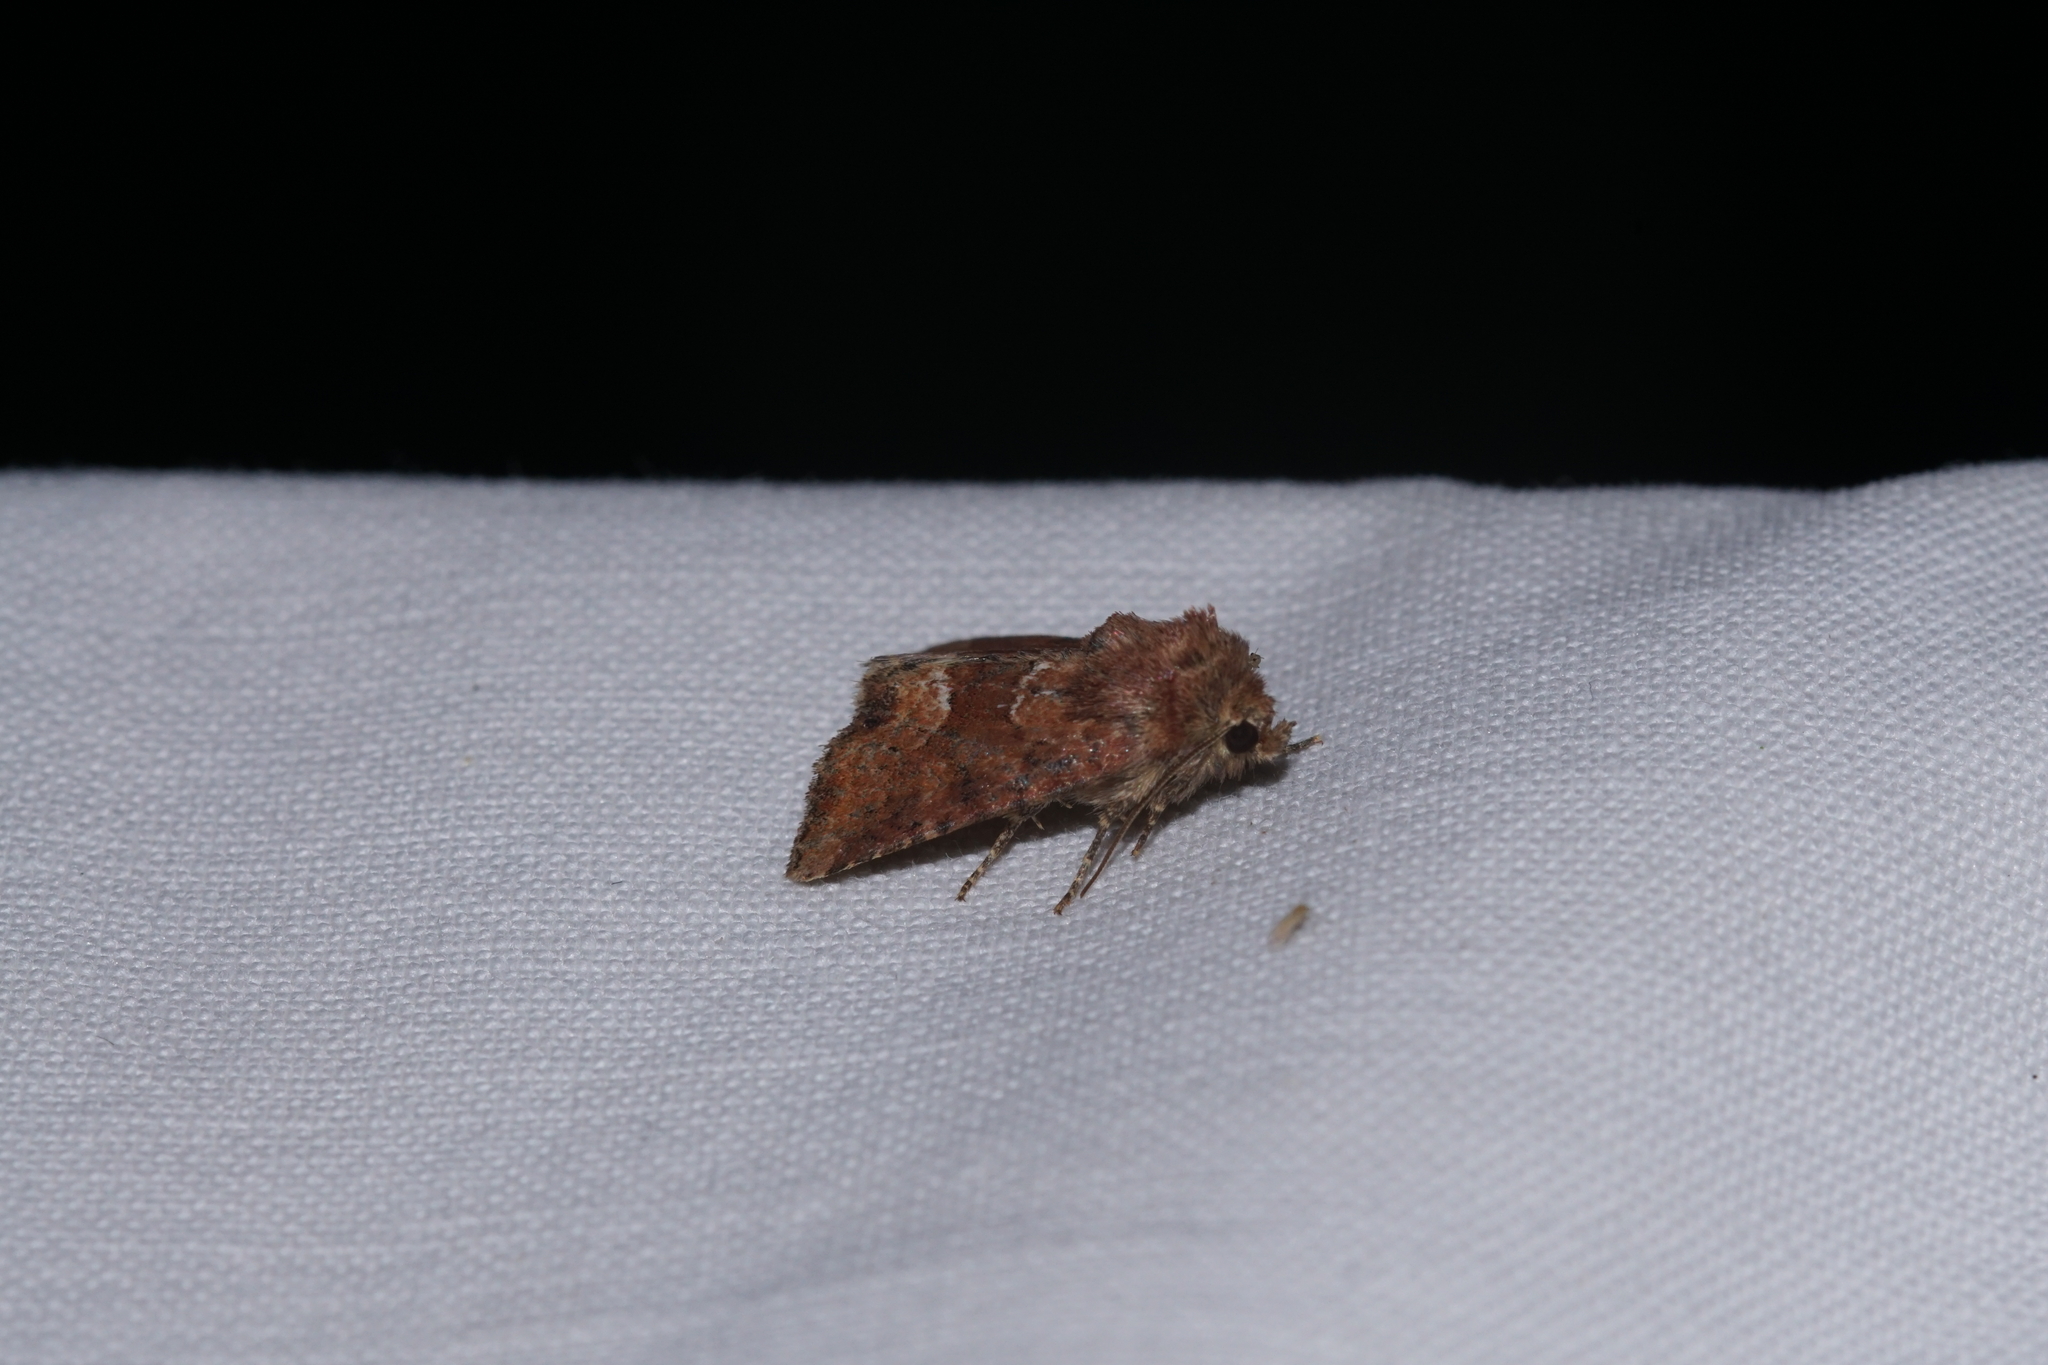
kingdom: Animalia
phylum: Arthropoda
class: Insecta
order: Lepidoptera
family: Noctuidae
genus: Oligia
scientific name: Oligia fasciuncula
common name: Middle-barred minor
